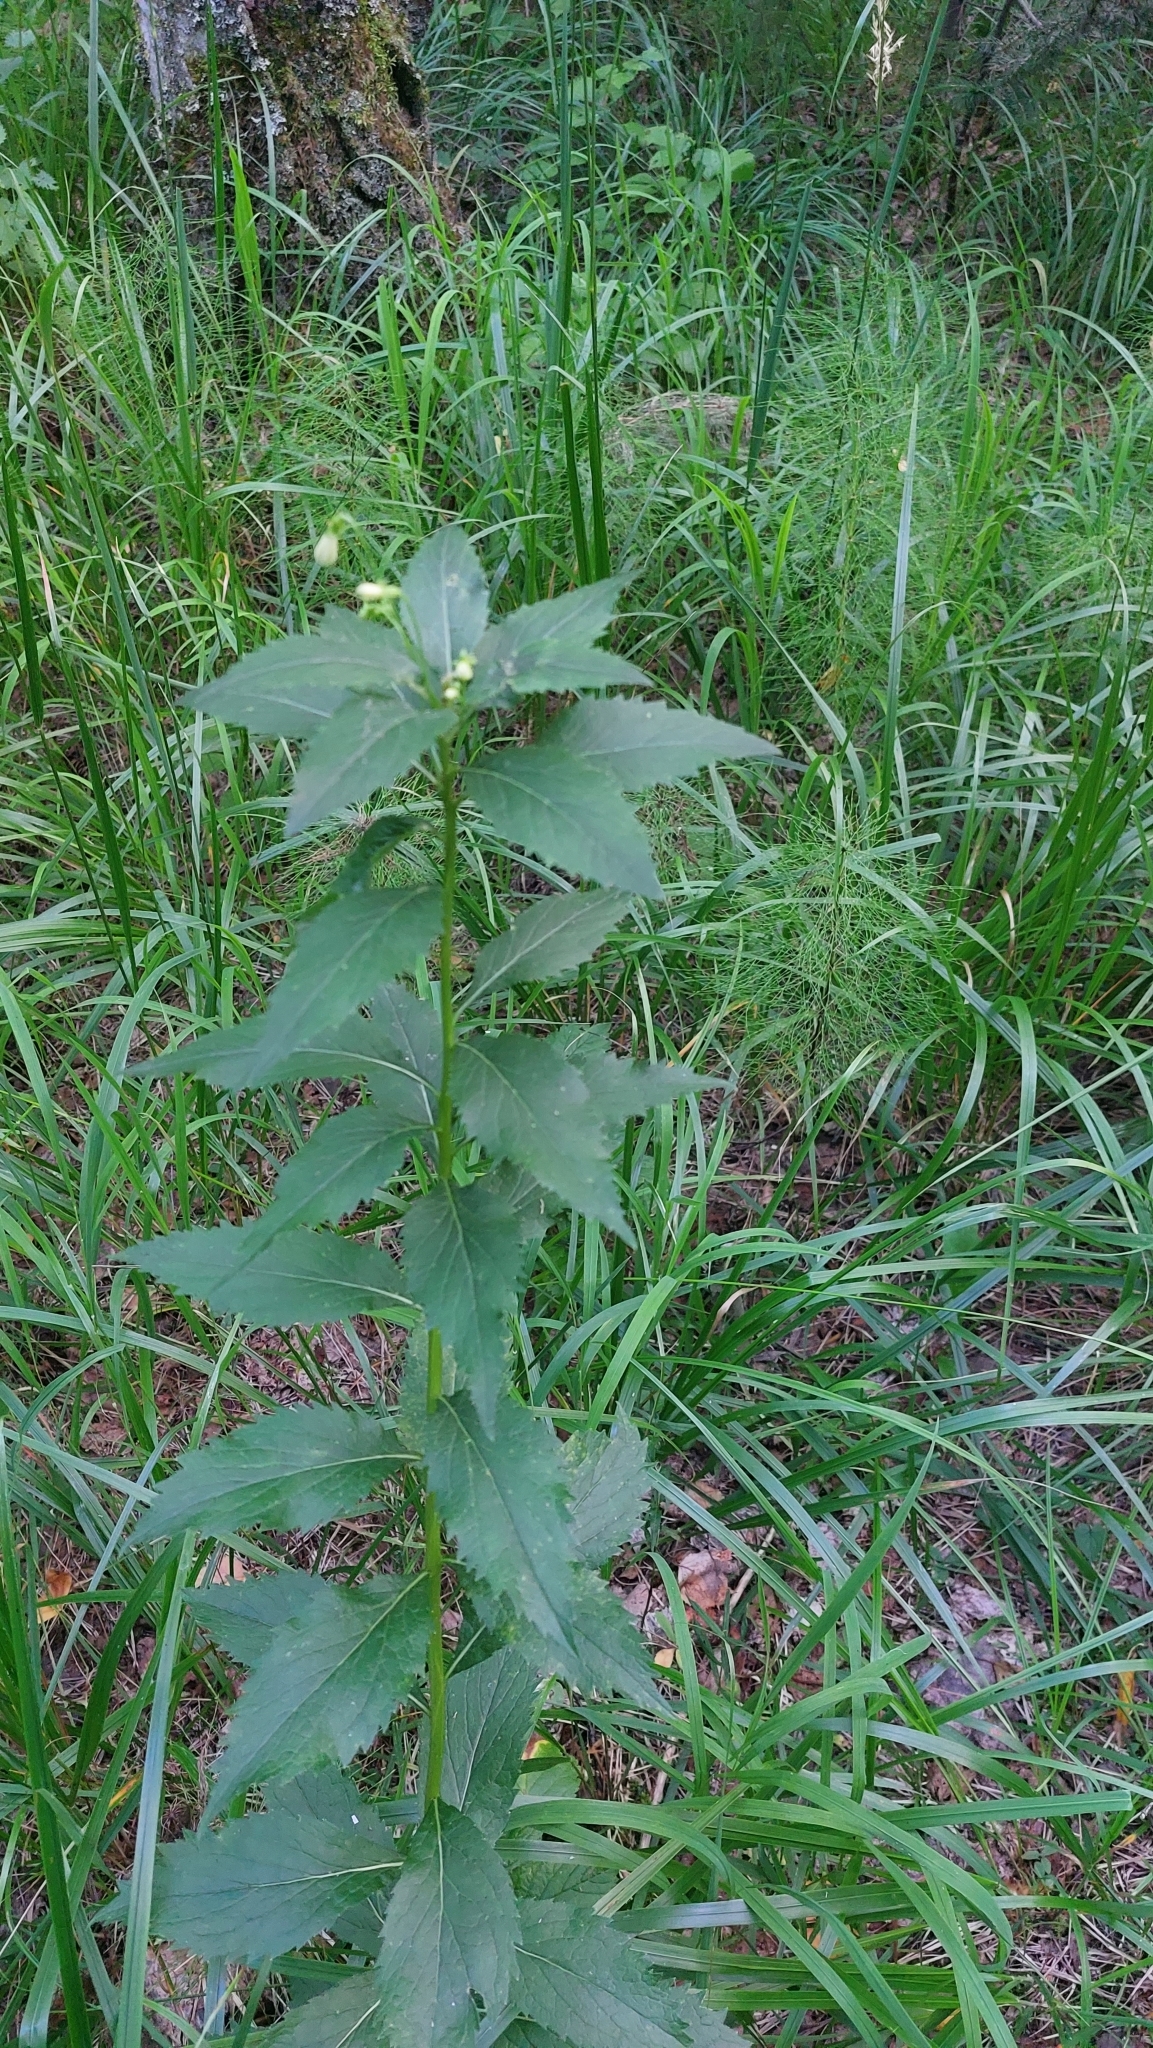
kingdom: Plantae
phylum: Tracheophyta
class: Magnoliopsida
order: Asterales
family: Campanulaceae
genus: Adenophora
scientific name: Adenophora liliifolia
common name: Lilyleaf ladybells
